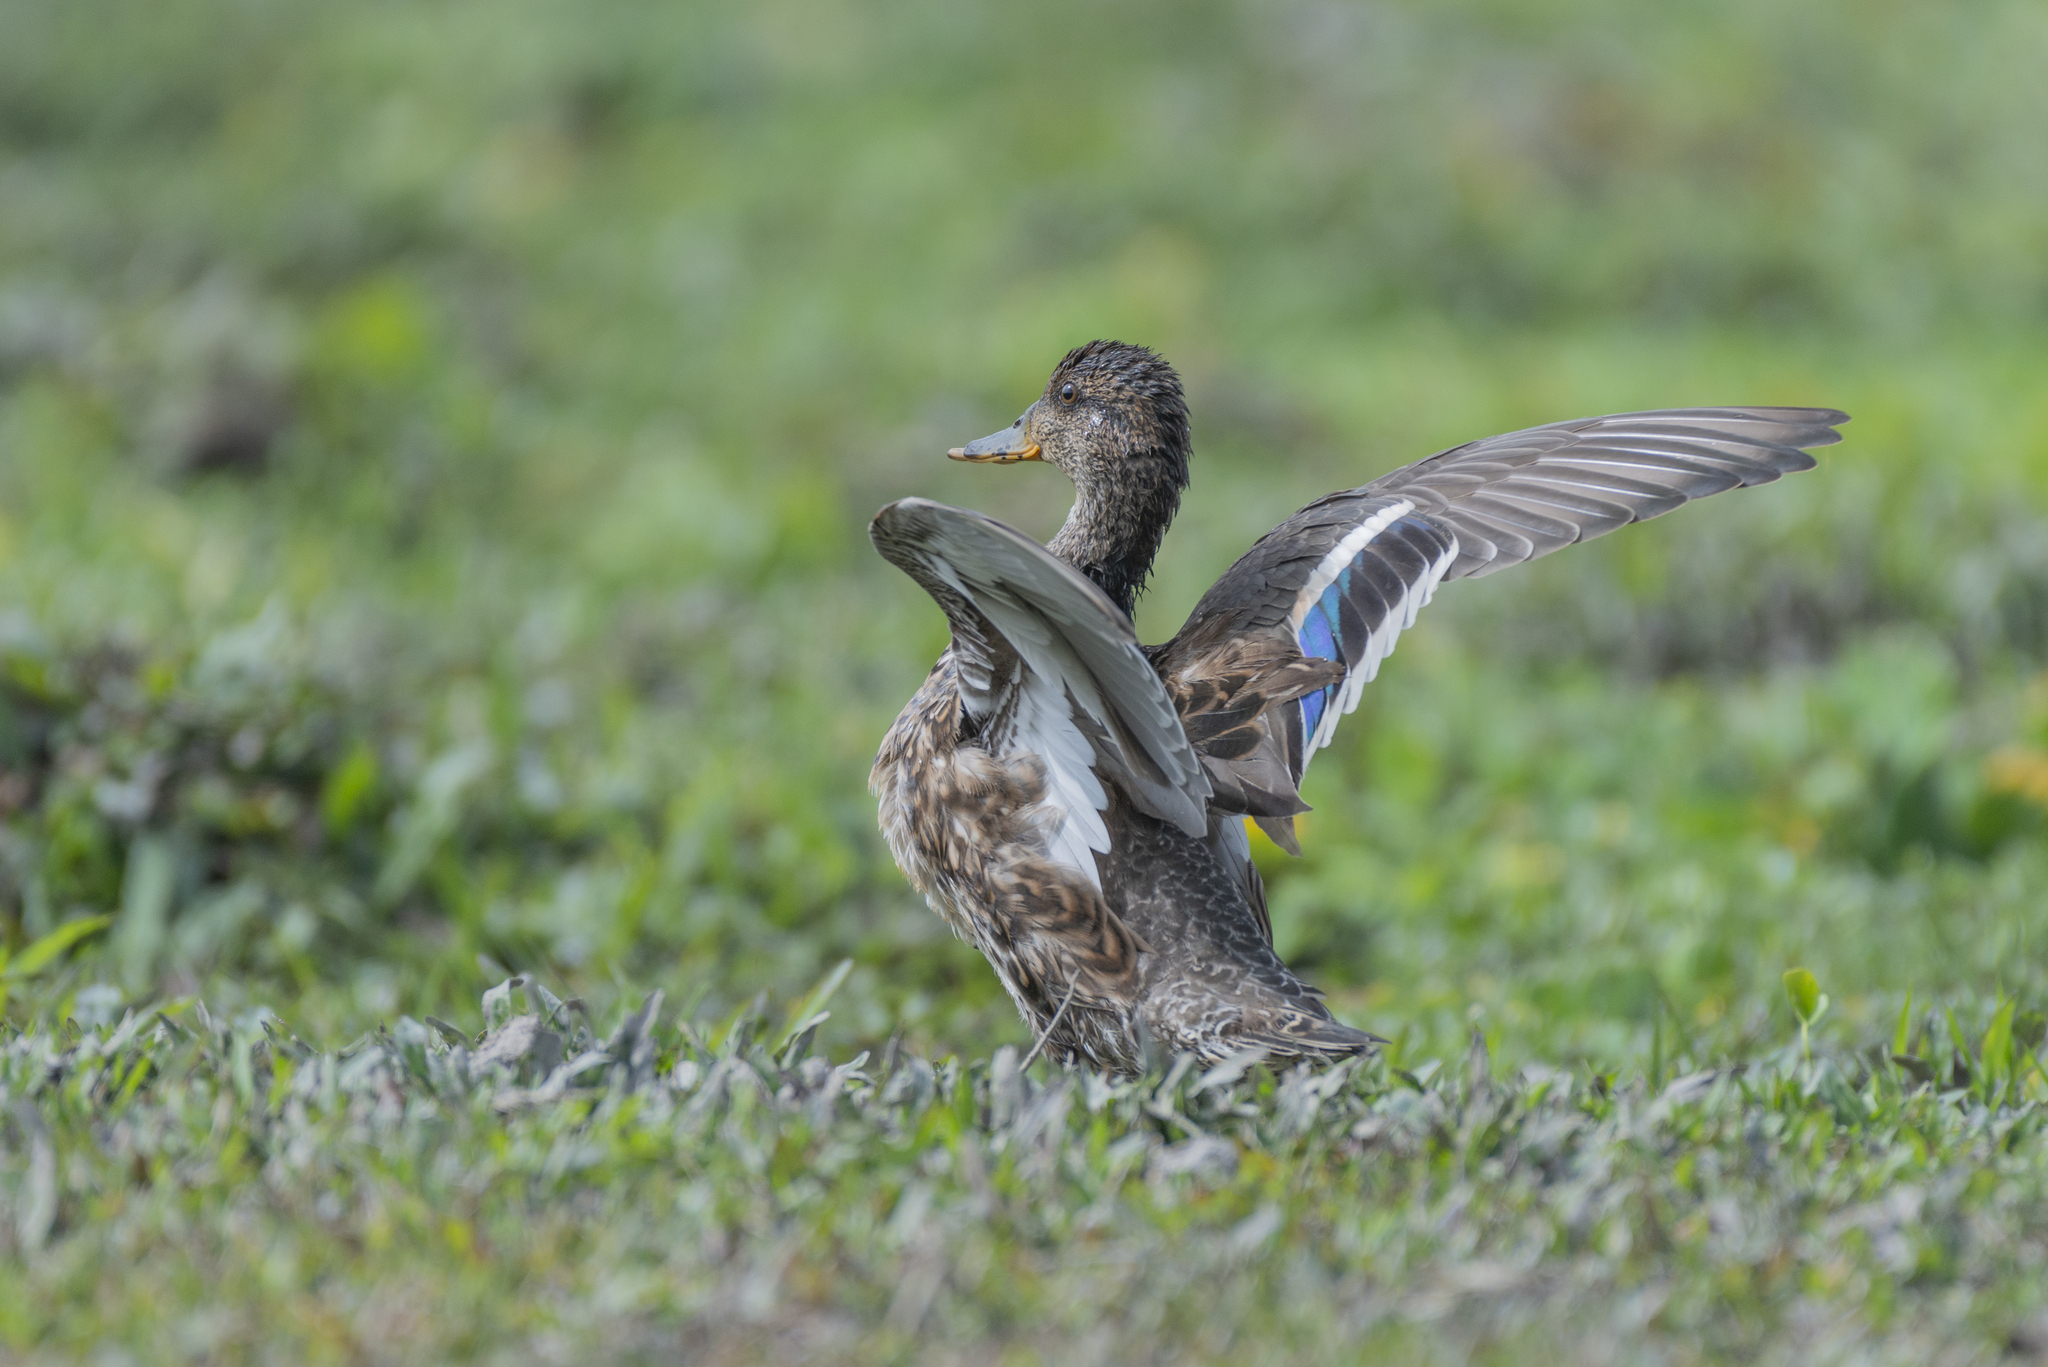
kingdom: Animalia
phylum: Chordata
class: Aves
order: Anseriformes
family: Anatidae
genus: Anas
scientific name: Anas crecca
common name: Eurasian teal
